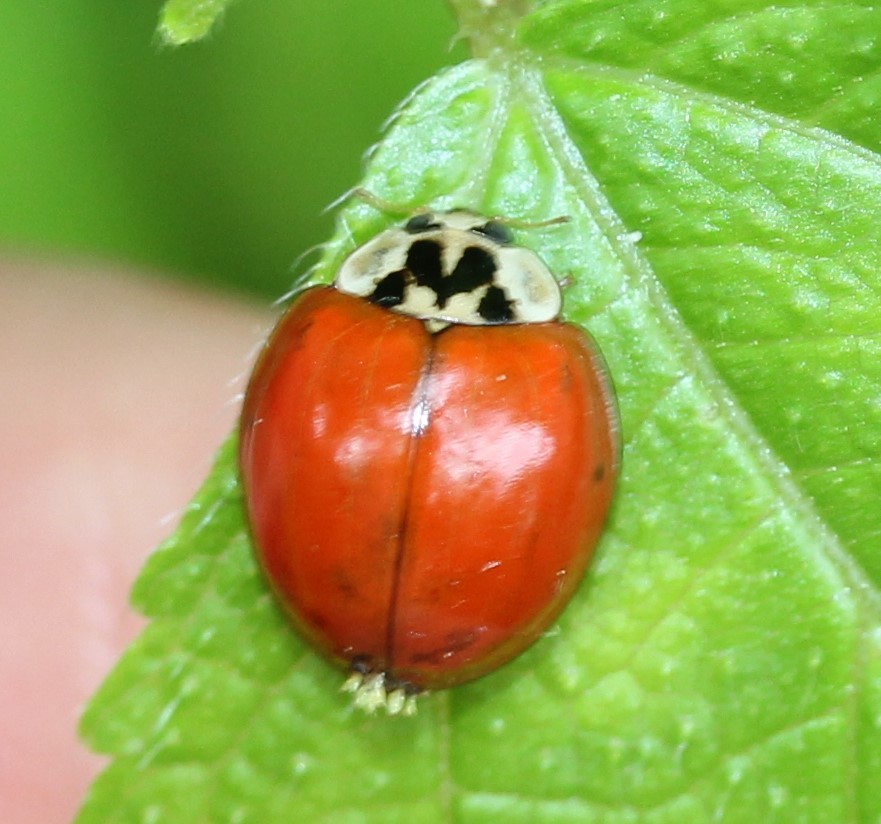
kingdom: Animalia
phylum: Arthropoda
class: Insecta
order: Coleoptera
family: Coccinellidae
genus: Harmonia
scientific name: Harmonia axyridis
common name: Harlequin ladybird
